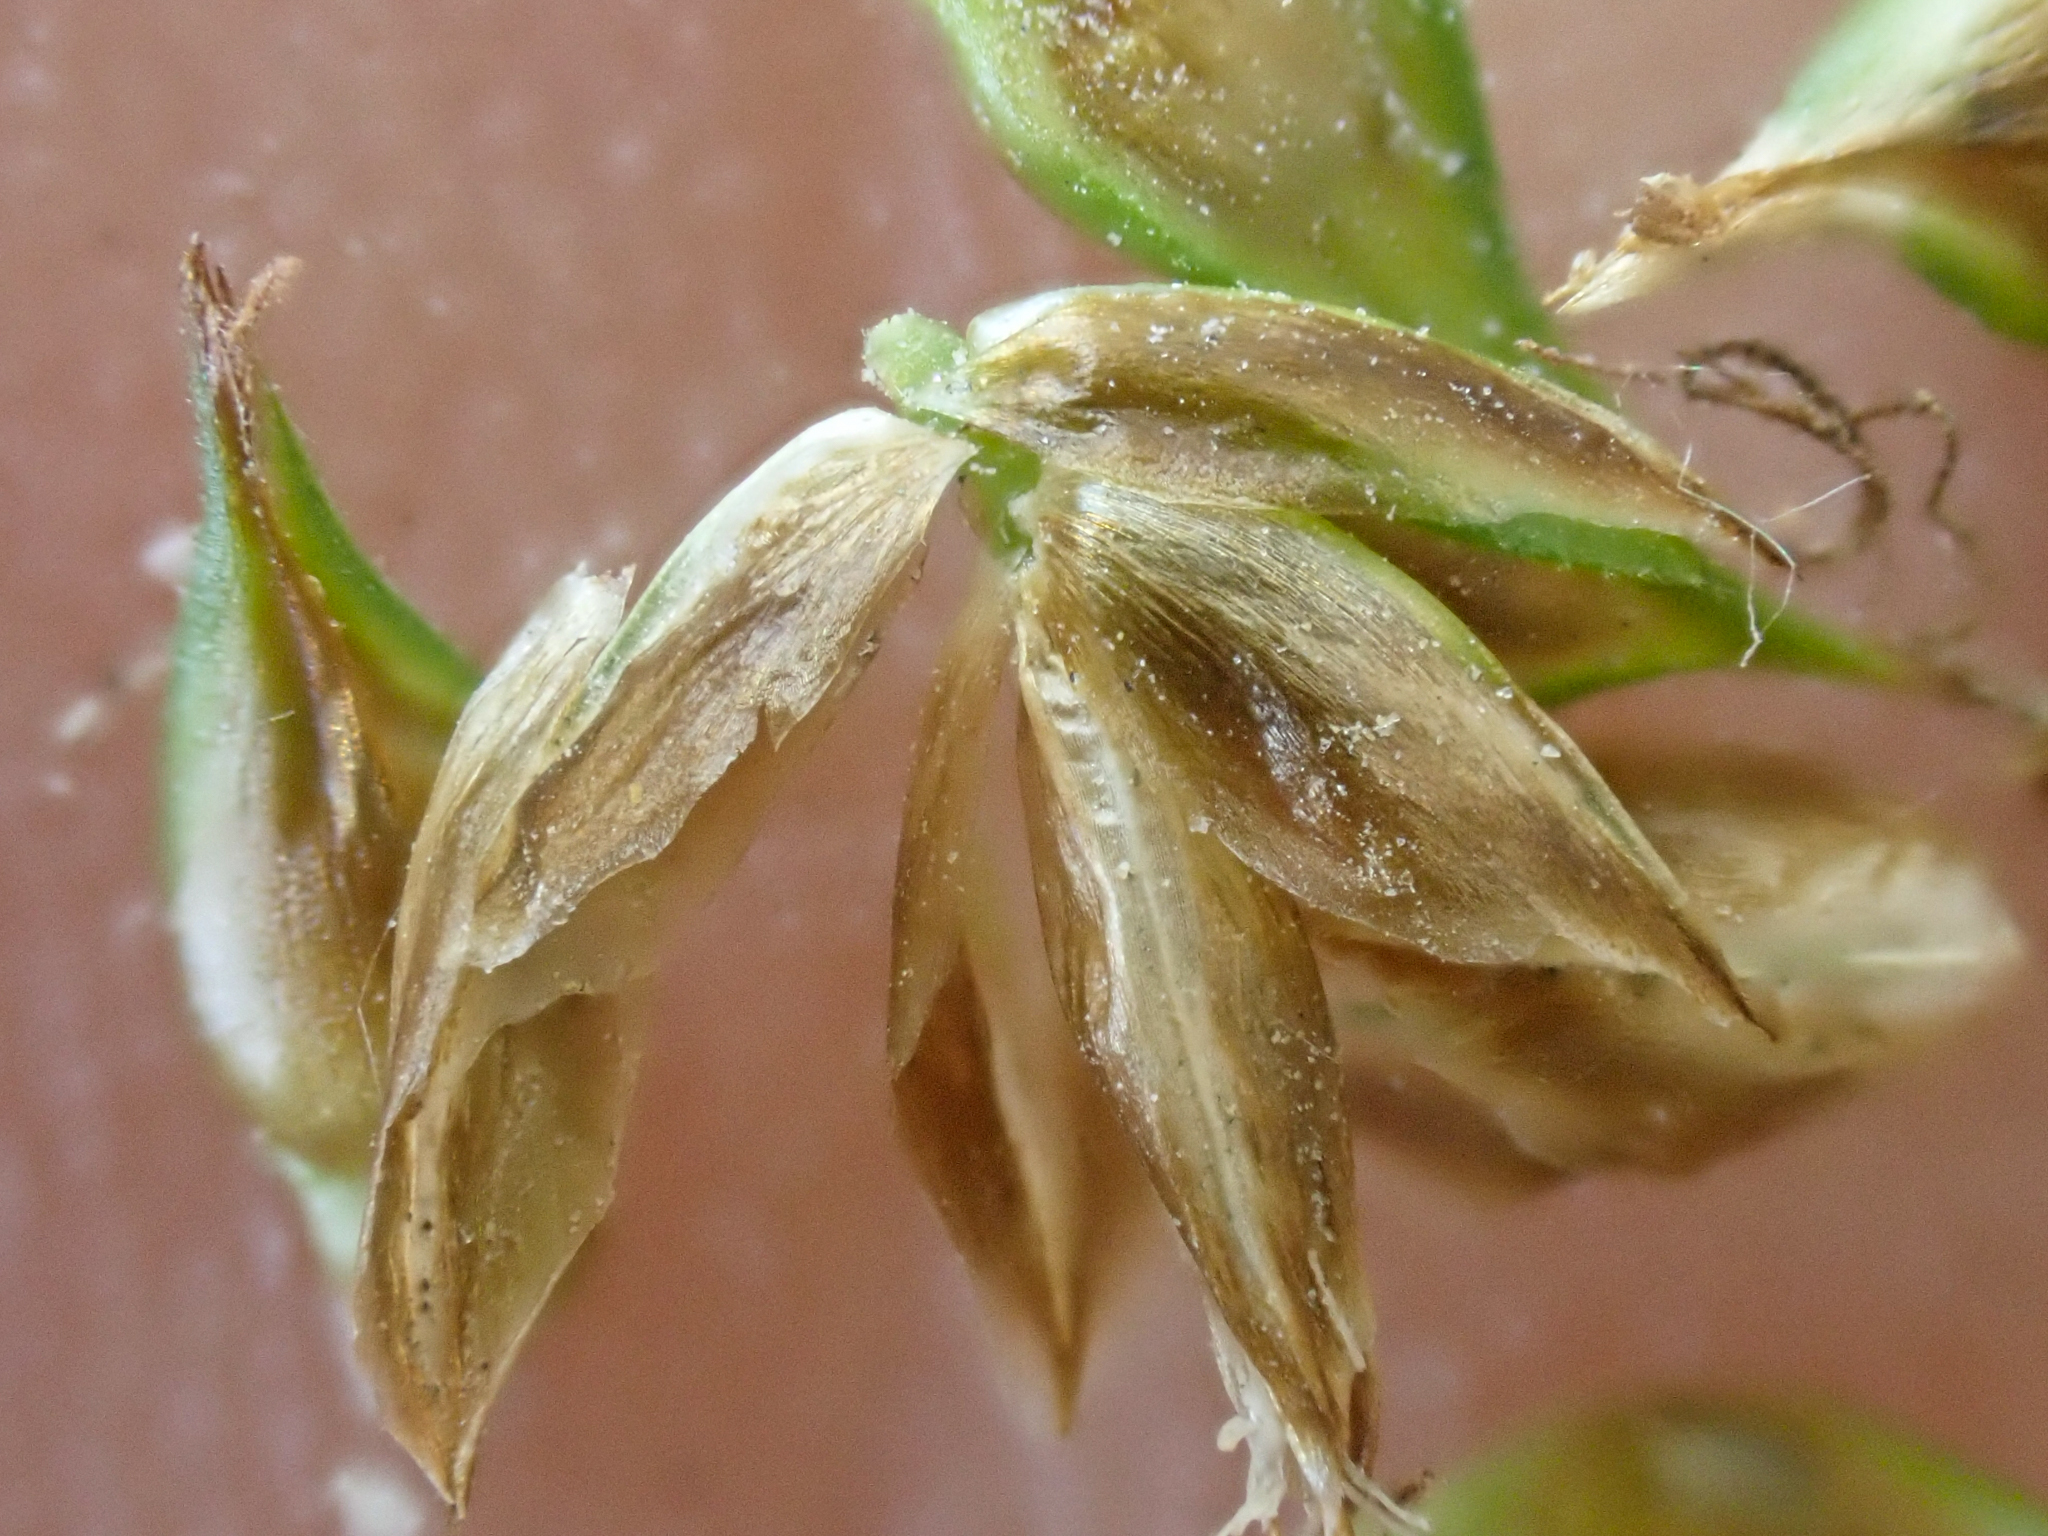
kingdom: Plantae
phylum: Tracheophyta
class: Liliopsida
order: Poales
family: Cyperaceae
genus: Carex
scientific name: Carex hoodii
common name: Hood's sedge
